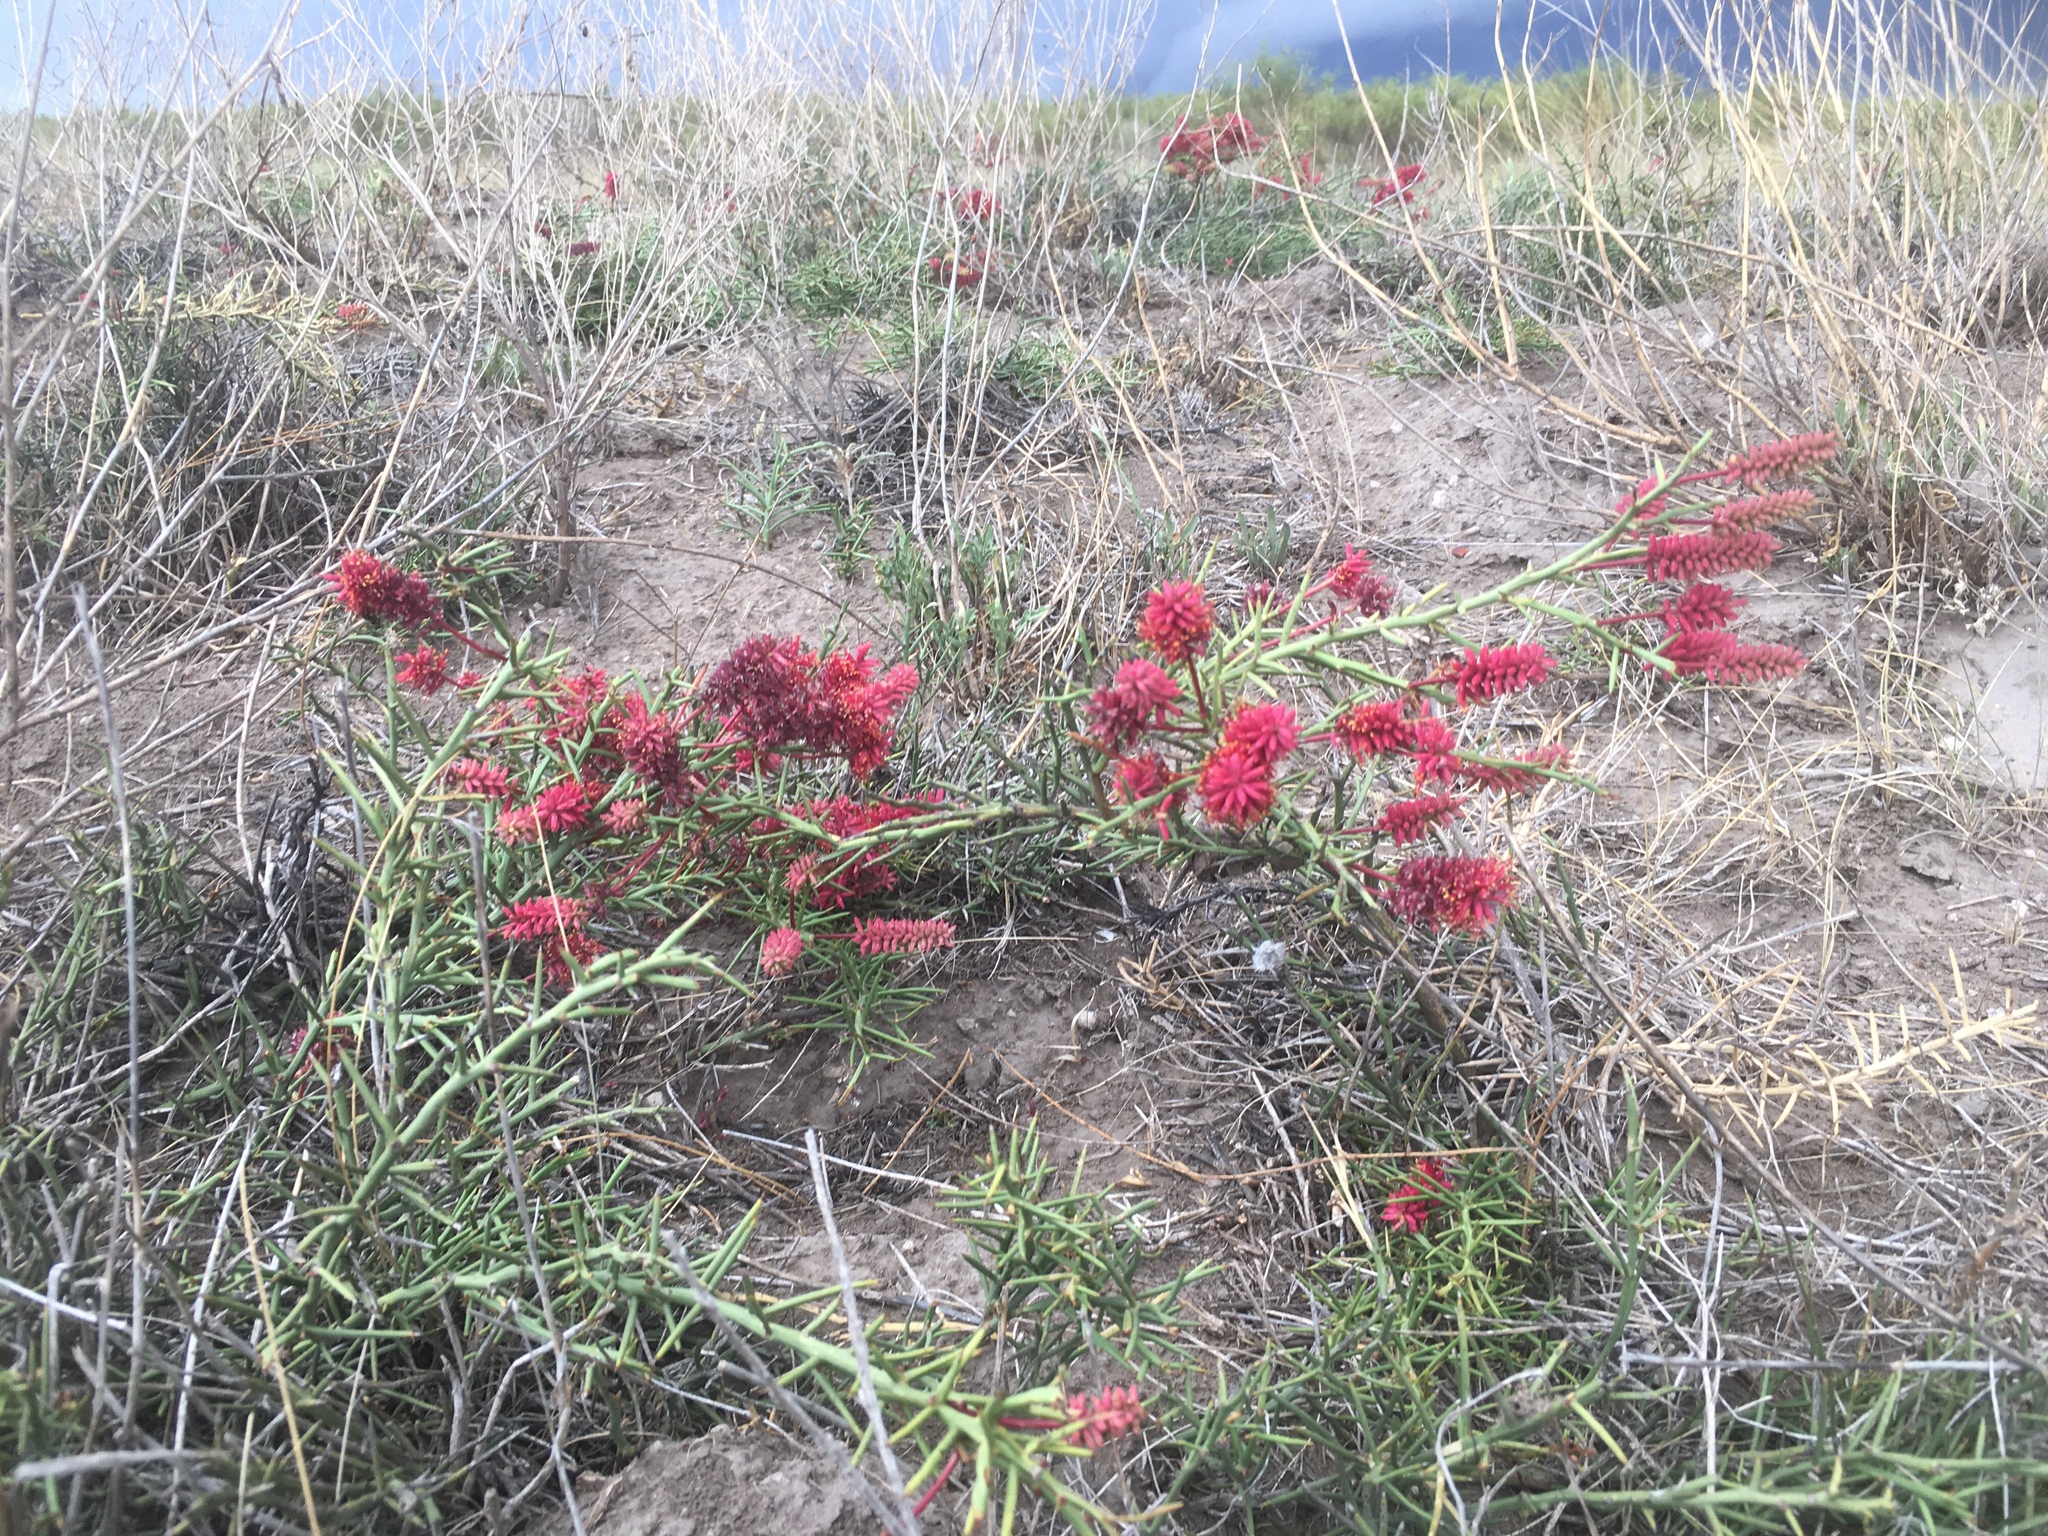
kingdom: Plantae
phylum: Tracheophyta
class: Magnoliopsida
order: Fabales
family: Fabaceae
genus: Prosopis
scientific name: Prosopis humilis
